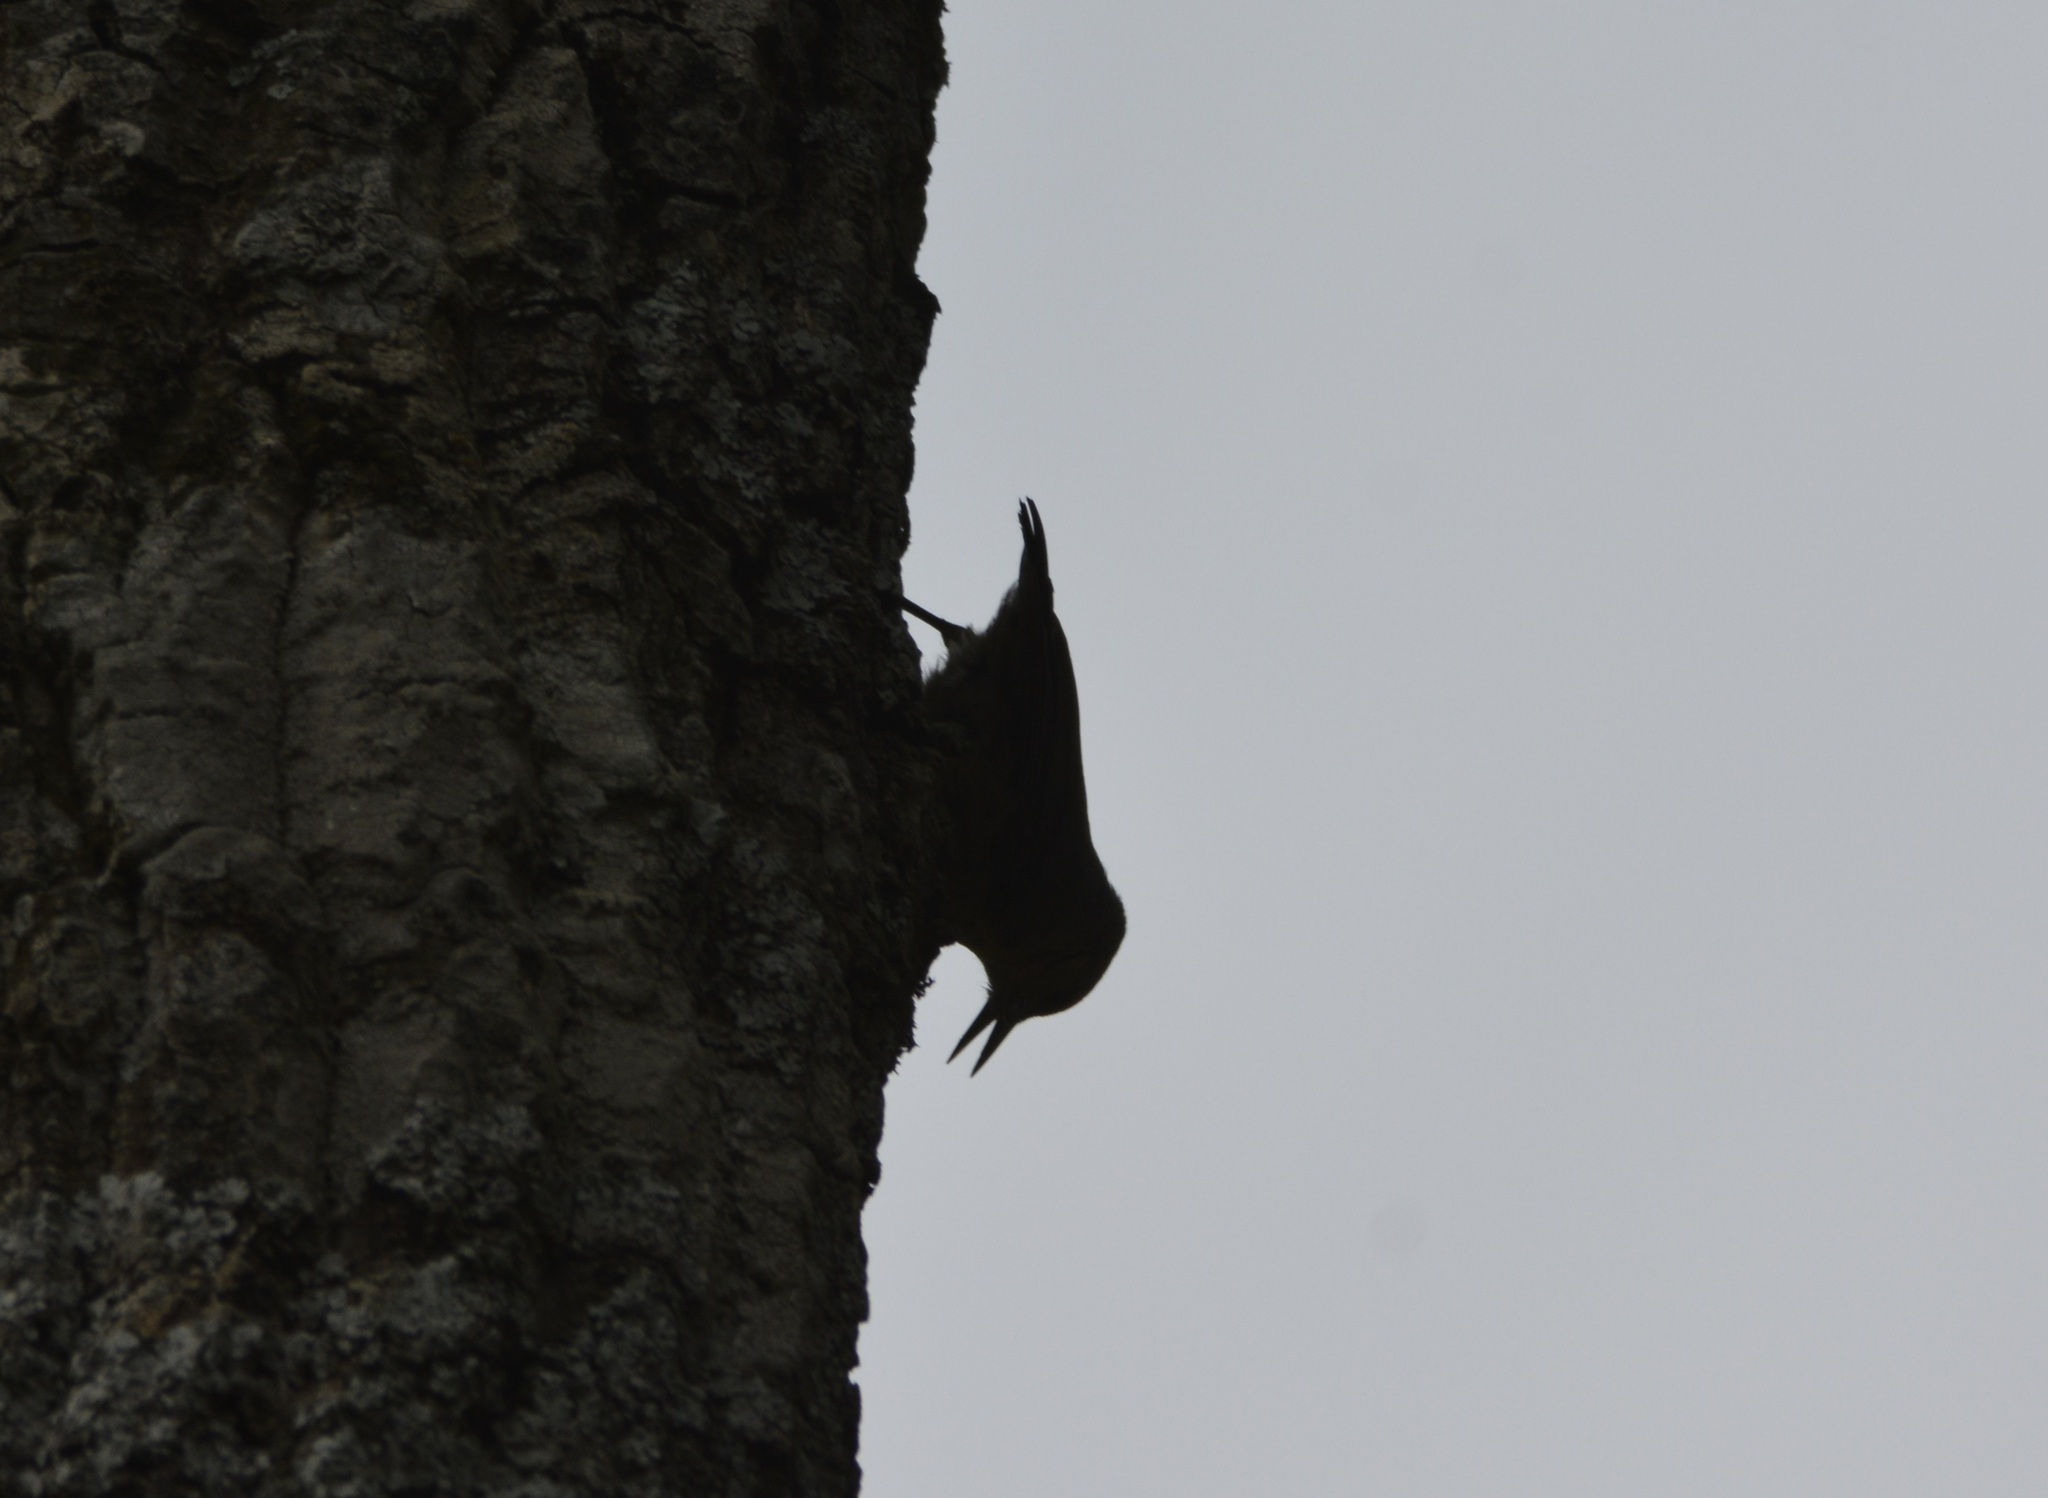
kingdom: Animalia
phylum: Chordata
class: Aves
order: Passeriformes
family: Sittidae
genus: Sitta
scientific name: Sitta ledanti
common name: Algerian nuthatch
